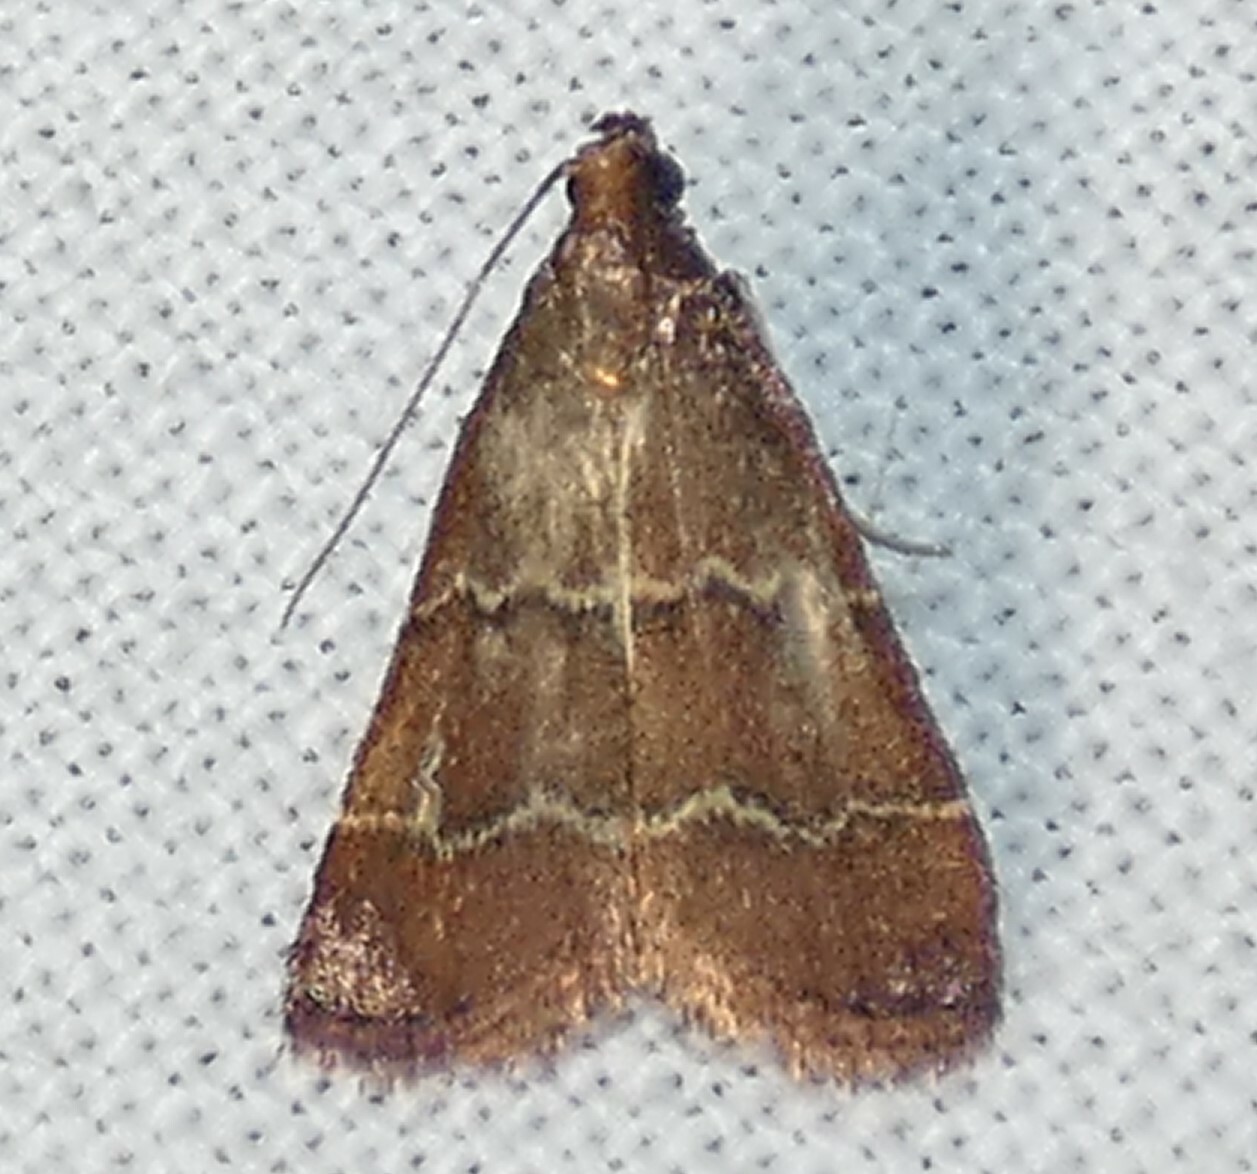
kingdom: Animalia
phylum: Arthropoda
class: Insecta
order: Lepidoptera
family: Pyralidae
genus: Arta
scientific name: Arta
